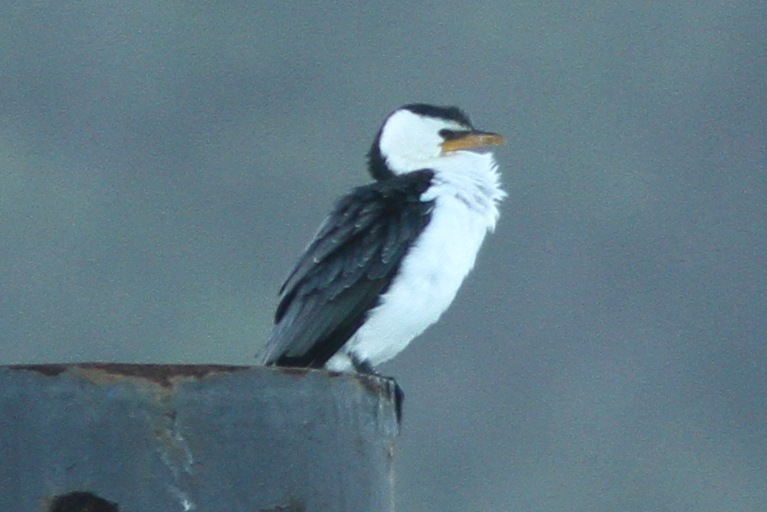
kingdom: Animalia
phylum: Chordata
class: Aves
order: Suliformes
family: Phalacrocoracidae
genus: Microcarbo
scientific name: Microcarbo melanoleucos
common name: Little pied cormorant
